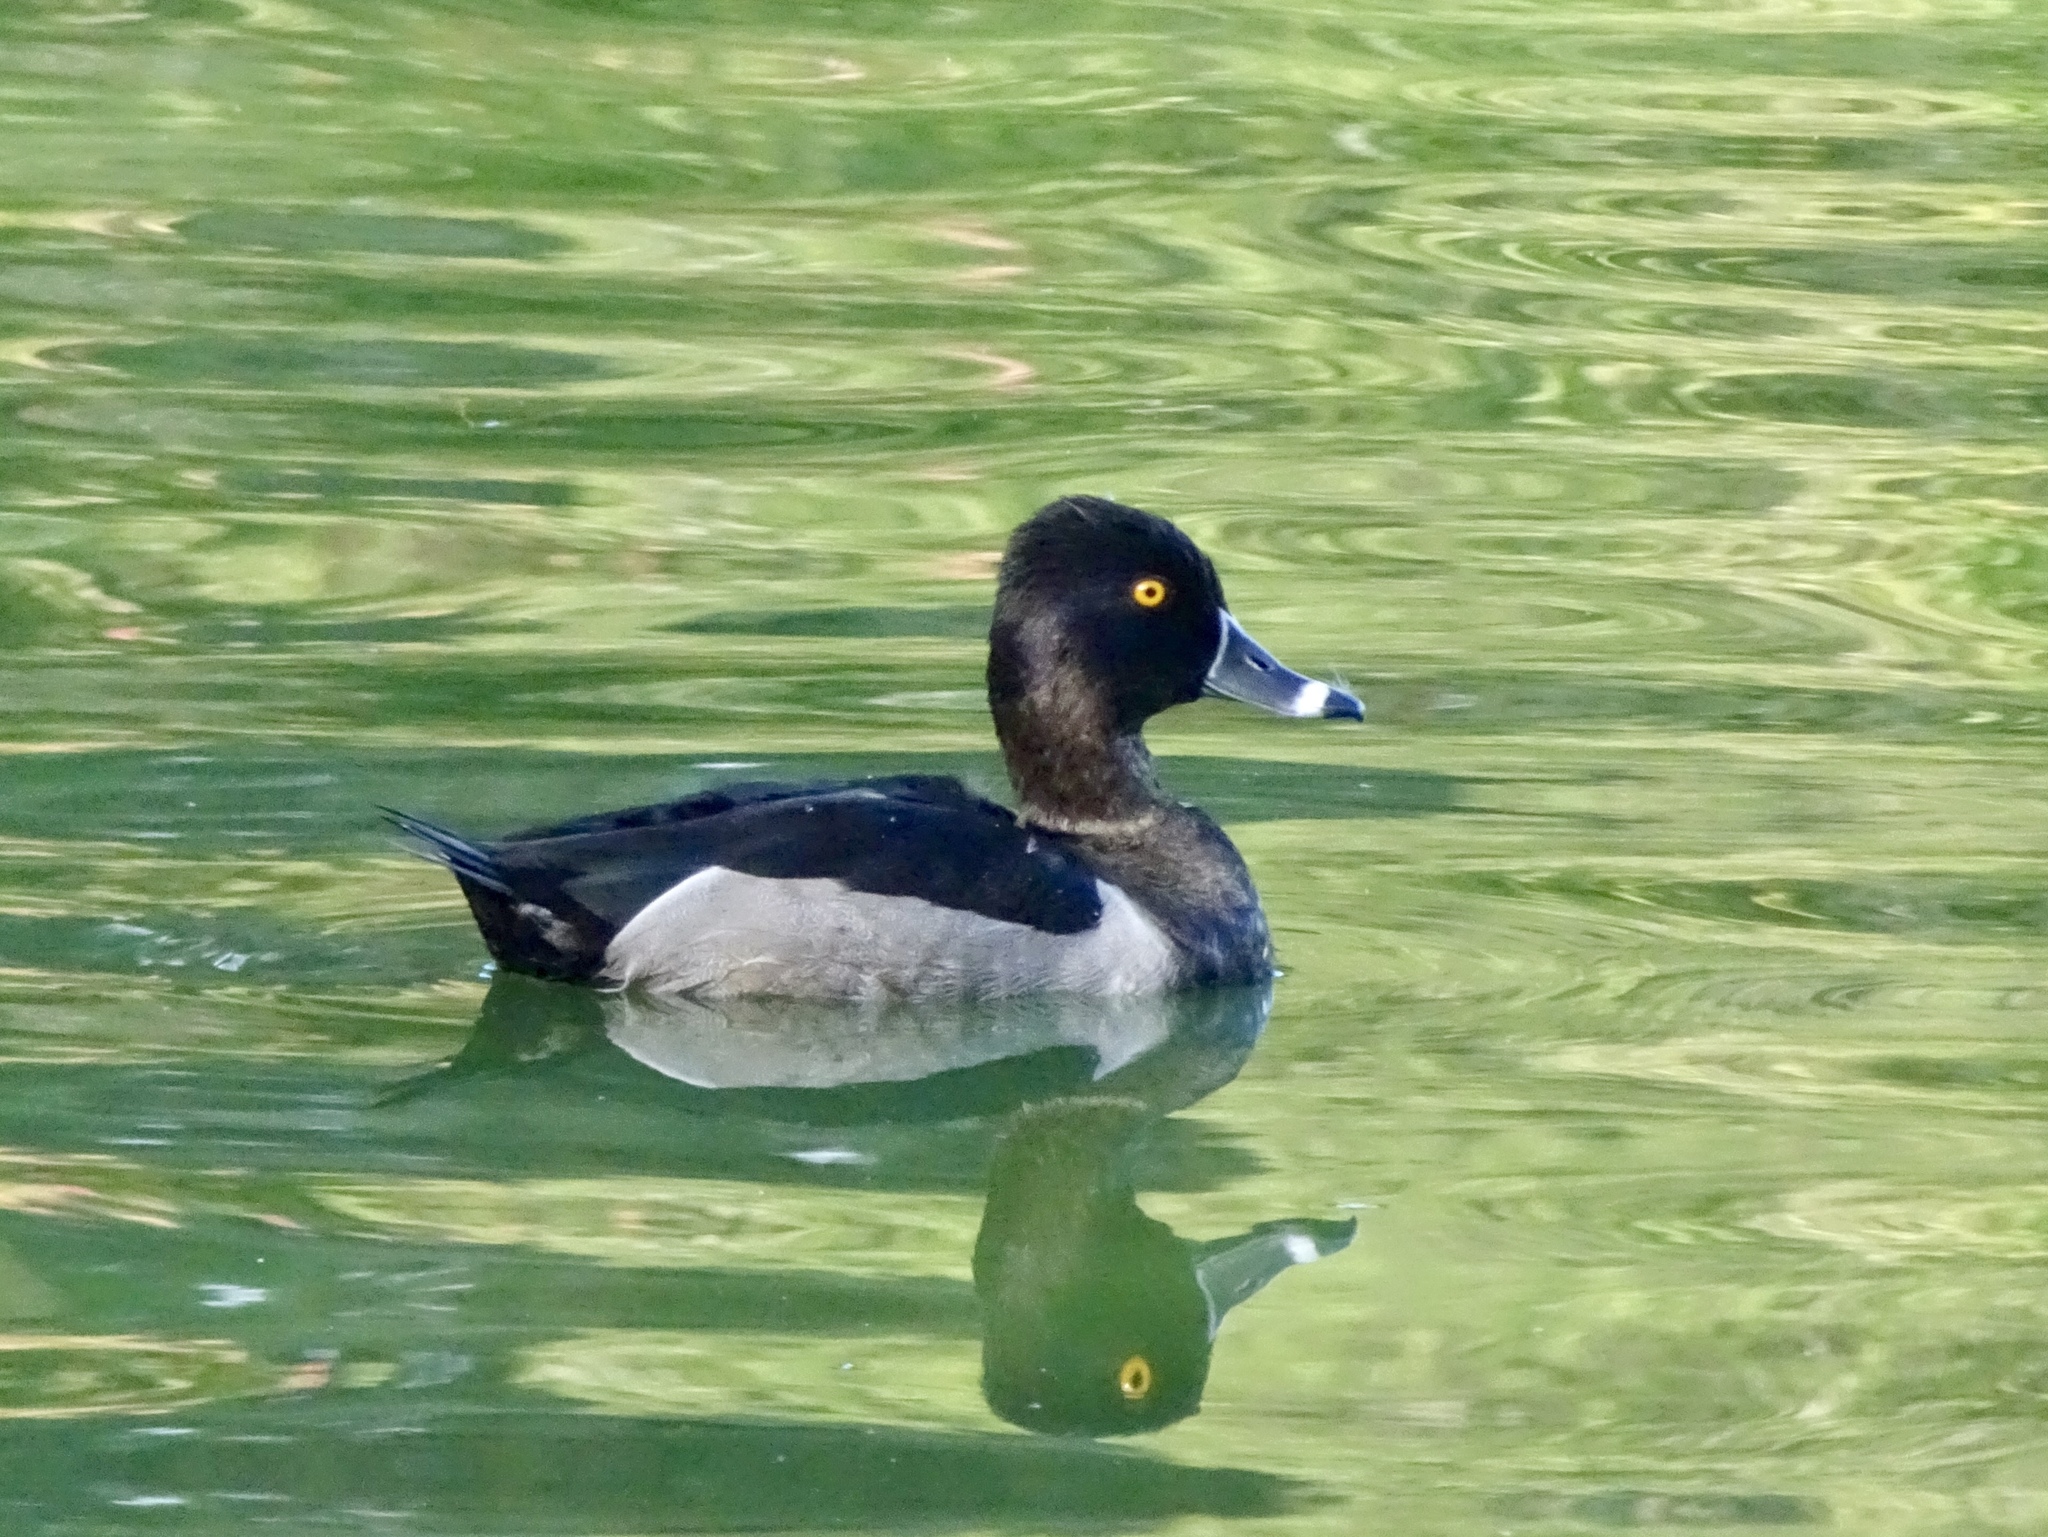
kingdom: Animalia
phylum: Chordata
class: Aves
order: Anseriformes
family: Anatidae
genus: Aythya
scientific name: Aythya collaris
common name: Ring-necked duck
